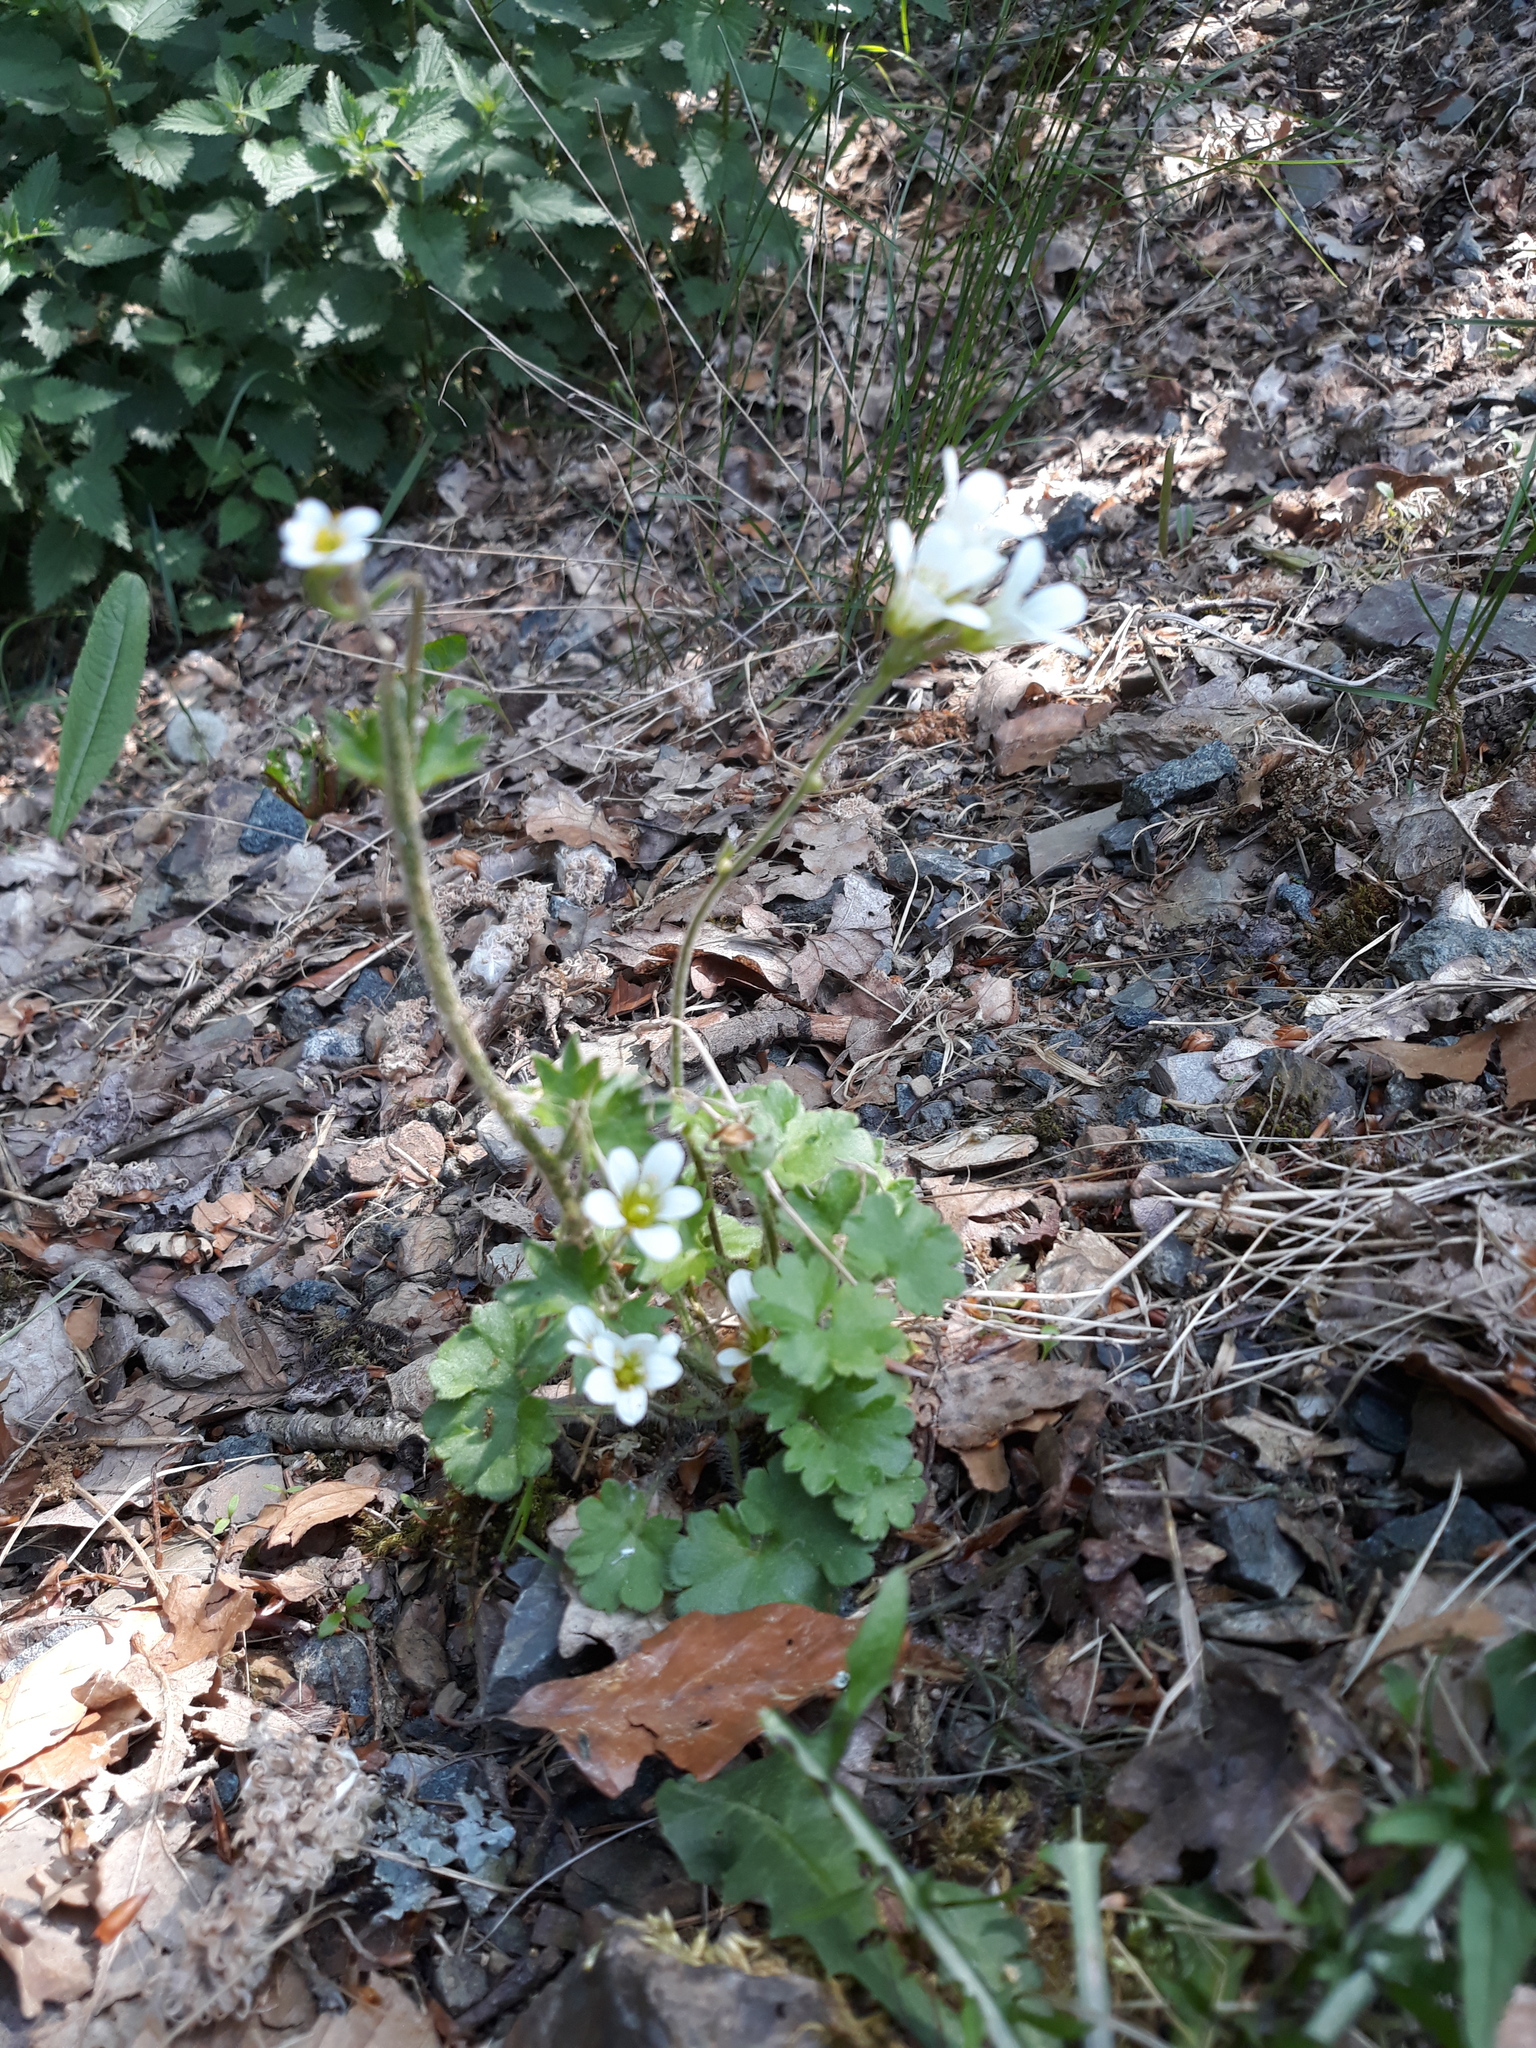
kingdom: Plantae
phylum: Tracheophyta
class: Magnoliopsida
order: Saxifragales
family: Saxifragaceae
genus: Saxifraga
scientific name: Saxifraga granulata
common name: Meadow saxifrage
